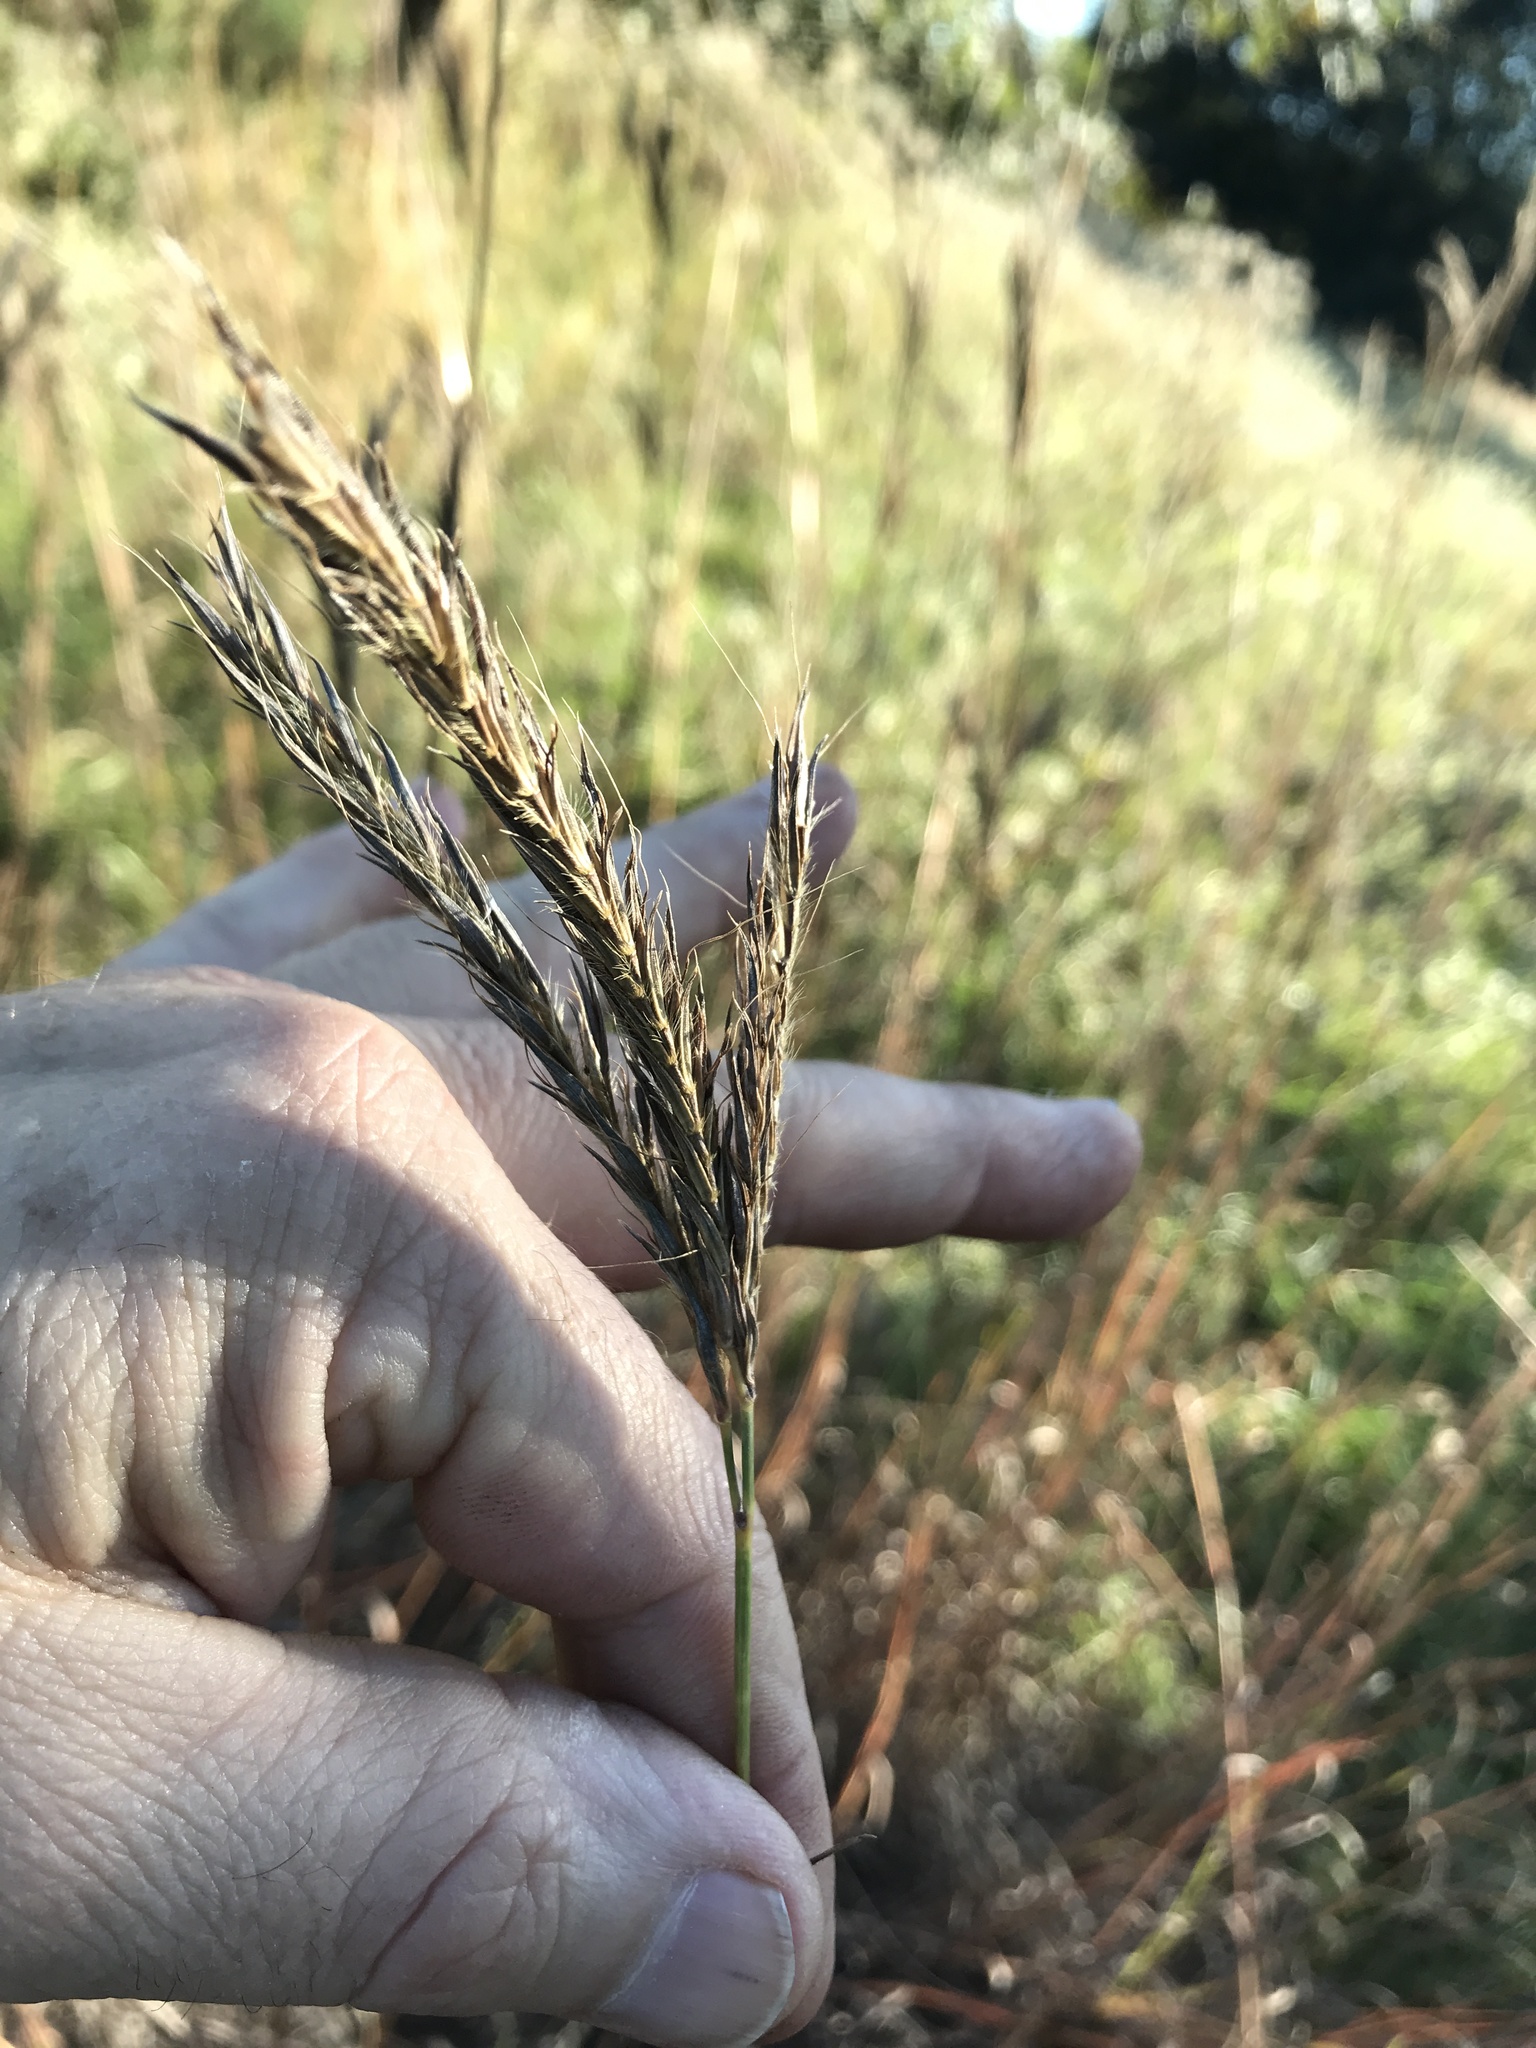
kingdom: Plantae
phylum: Tracheophyta
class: Liliopsida
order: Poales
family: Poaceae
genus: Andropogon
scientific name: Andropogon gerardi
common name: Big bluestem
